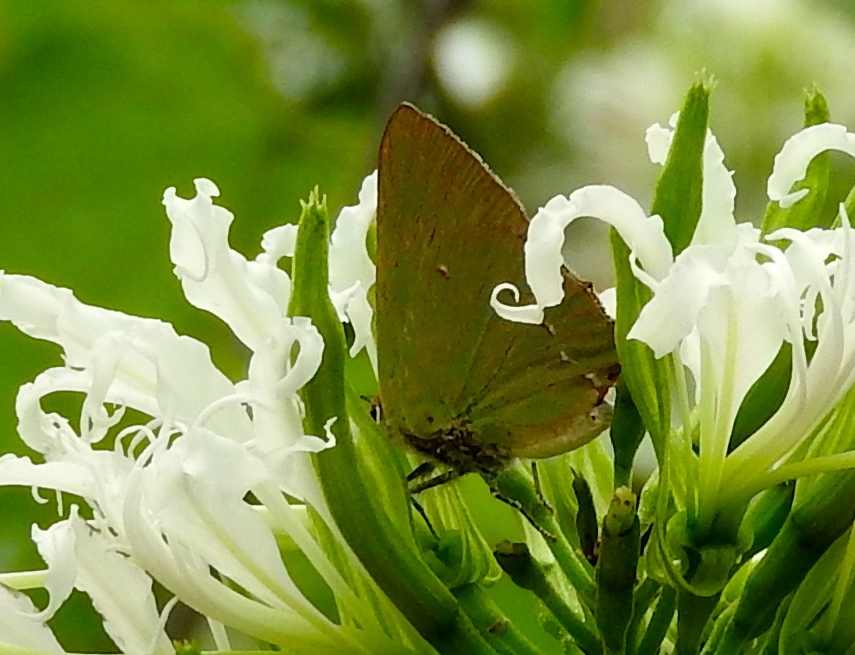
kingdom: Animalia
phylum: Arthropoda
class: Insecta
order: Lepidoptera
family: Lycaenidae
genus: Cyanophrys
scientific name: Cyanophrys
